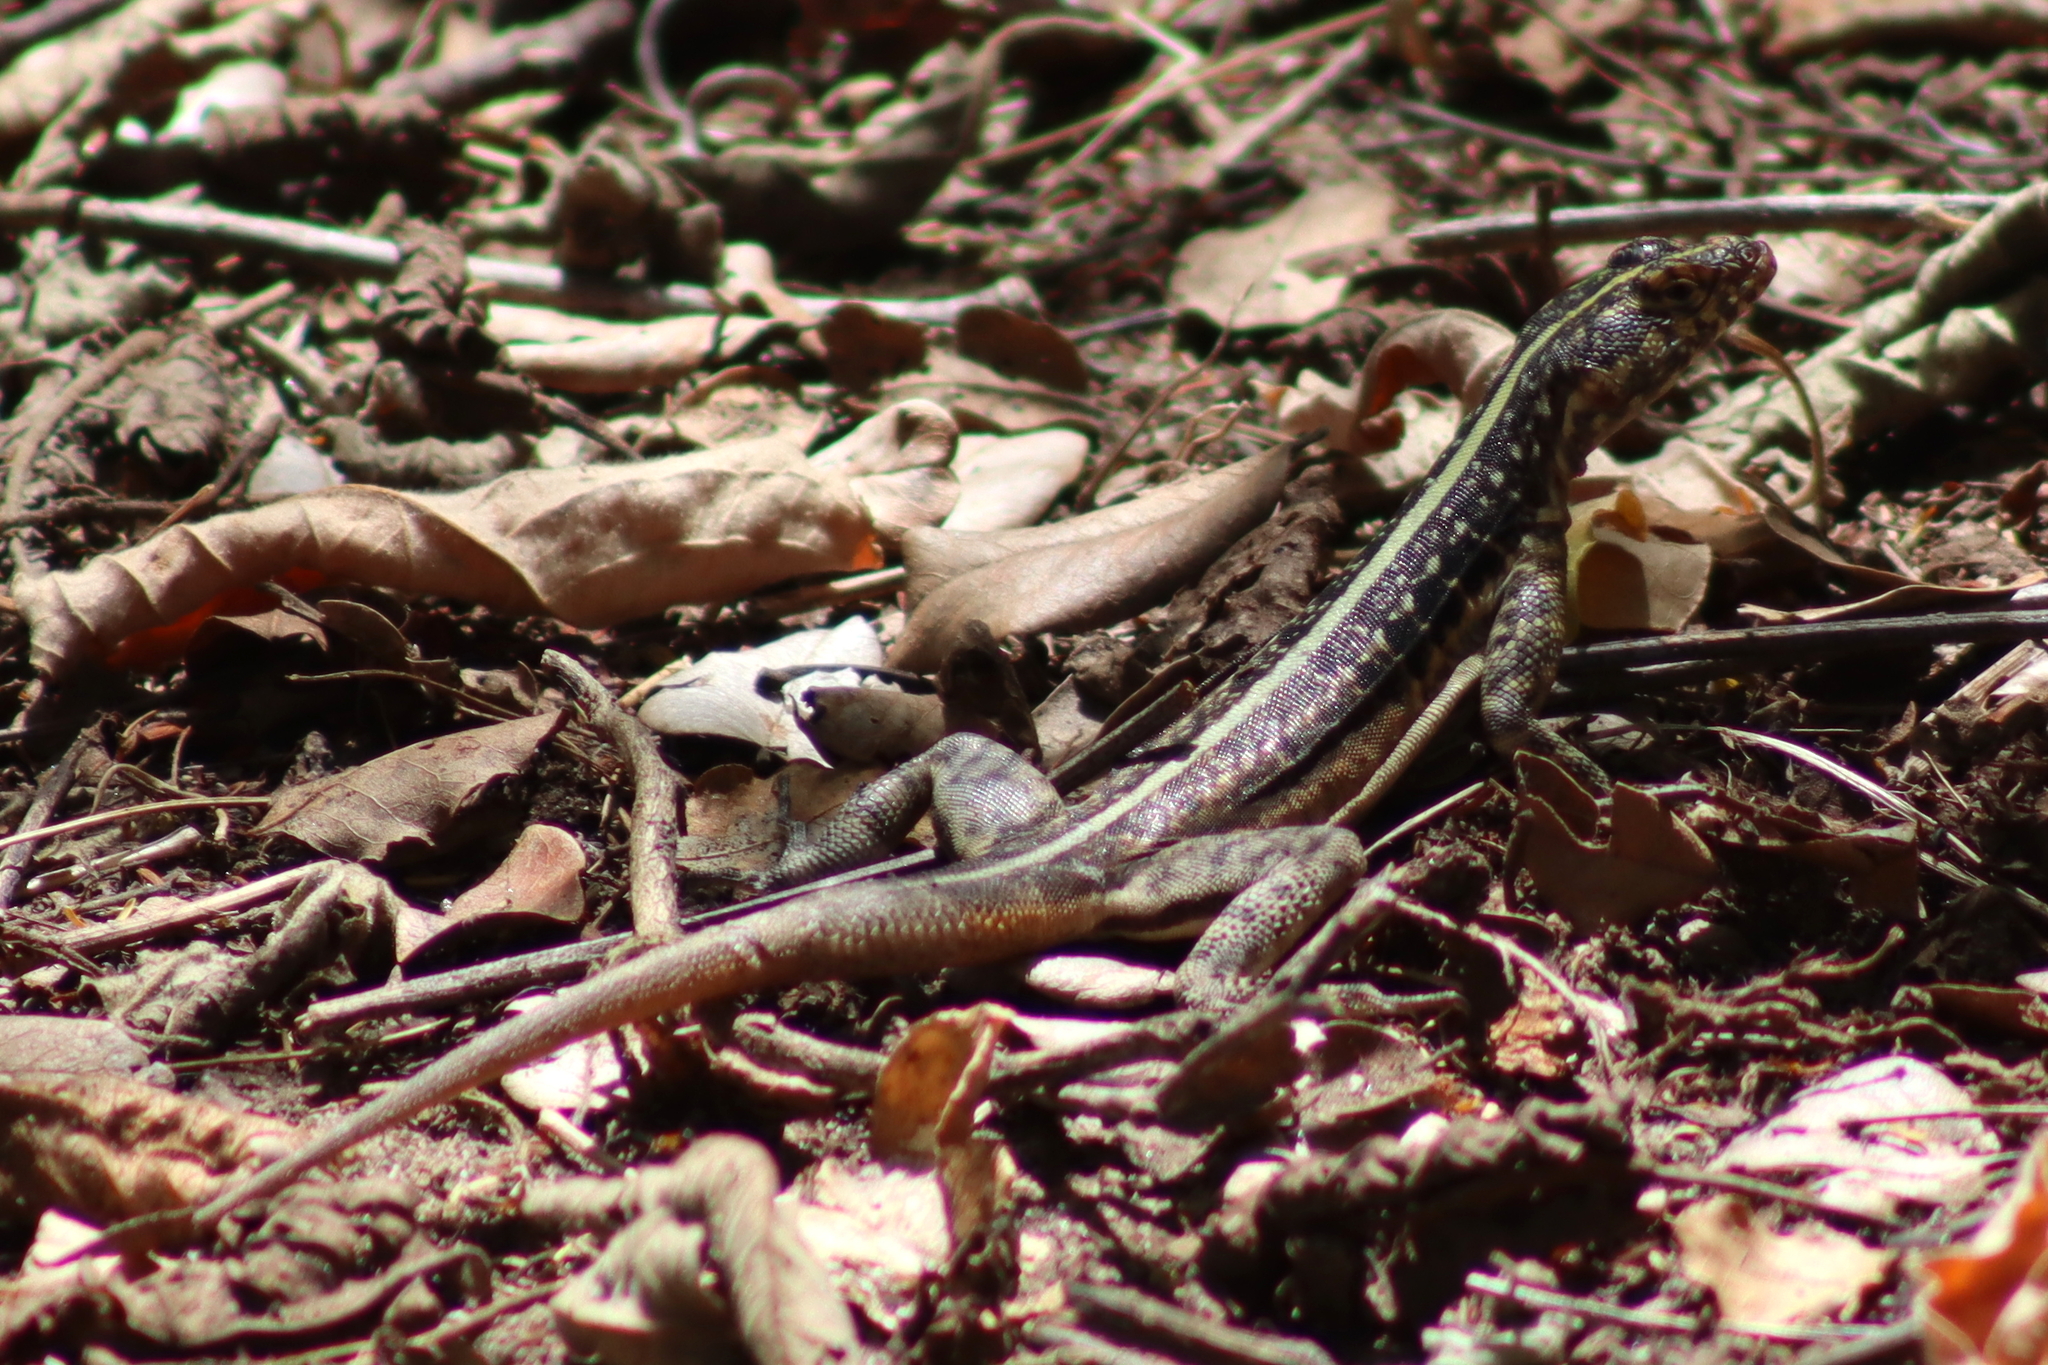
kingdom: Animalia
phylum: Chordata
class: Squamata
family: Tropiduridae
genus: Tropidurus
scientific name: Tropidurus semitaeniatus
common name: Striped lava lizard
